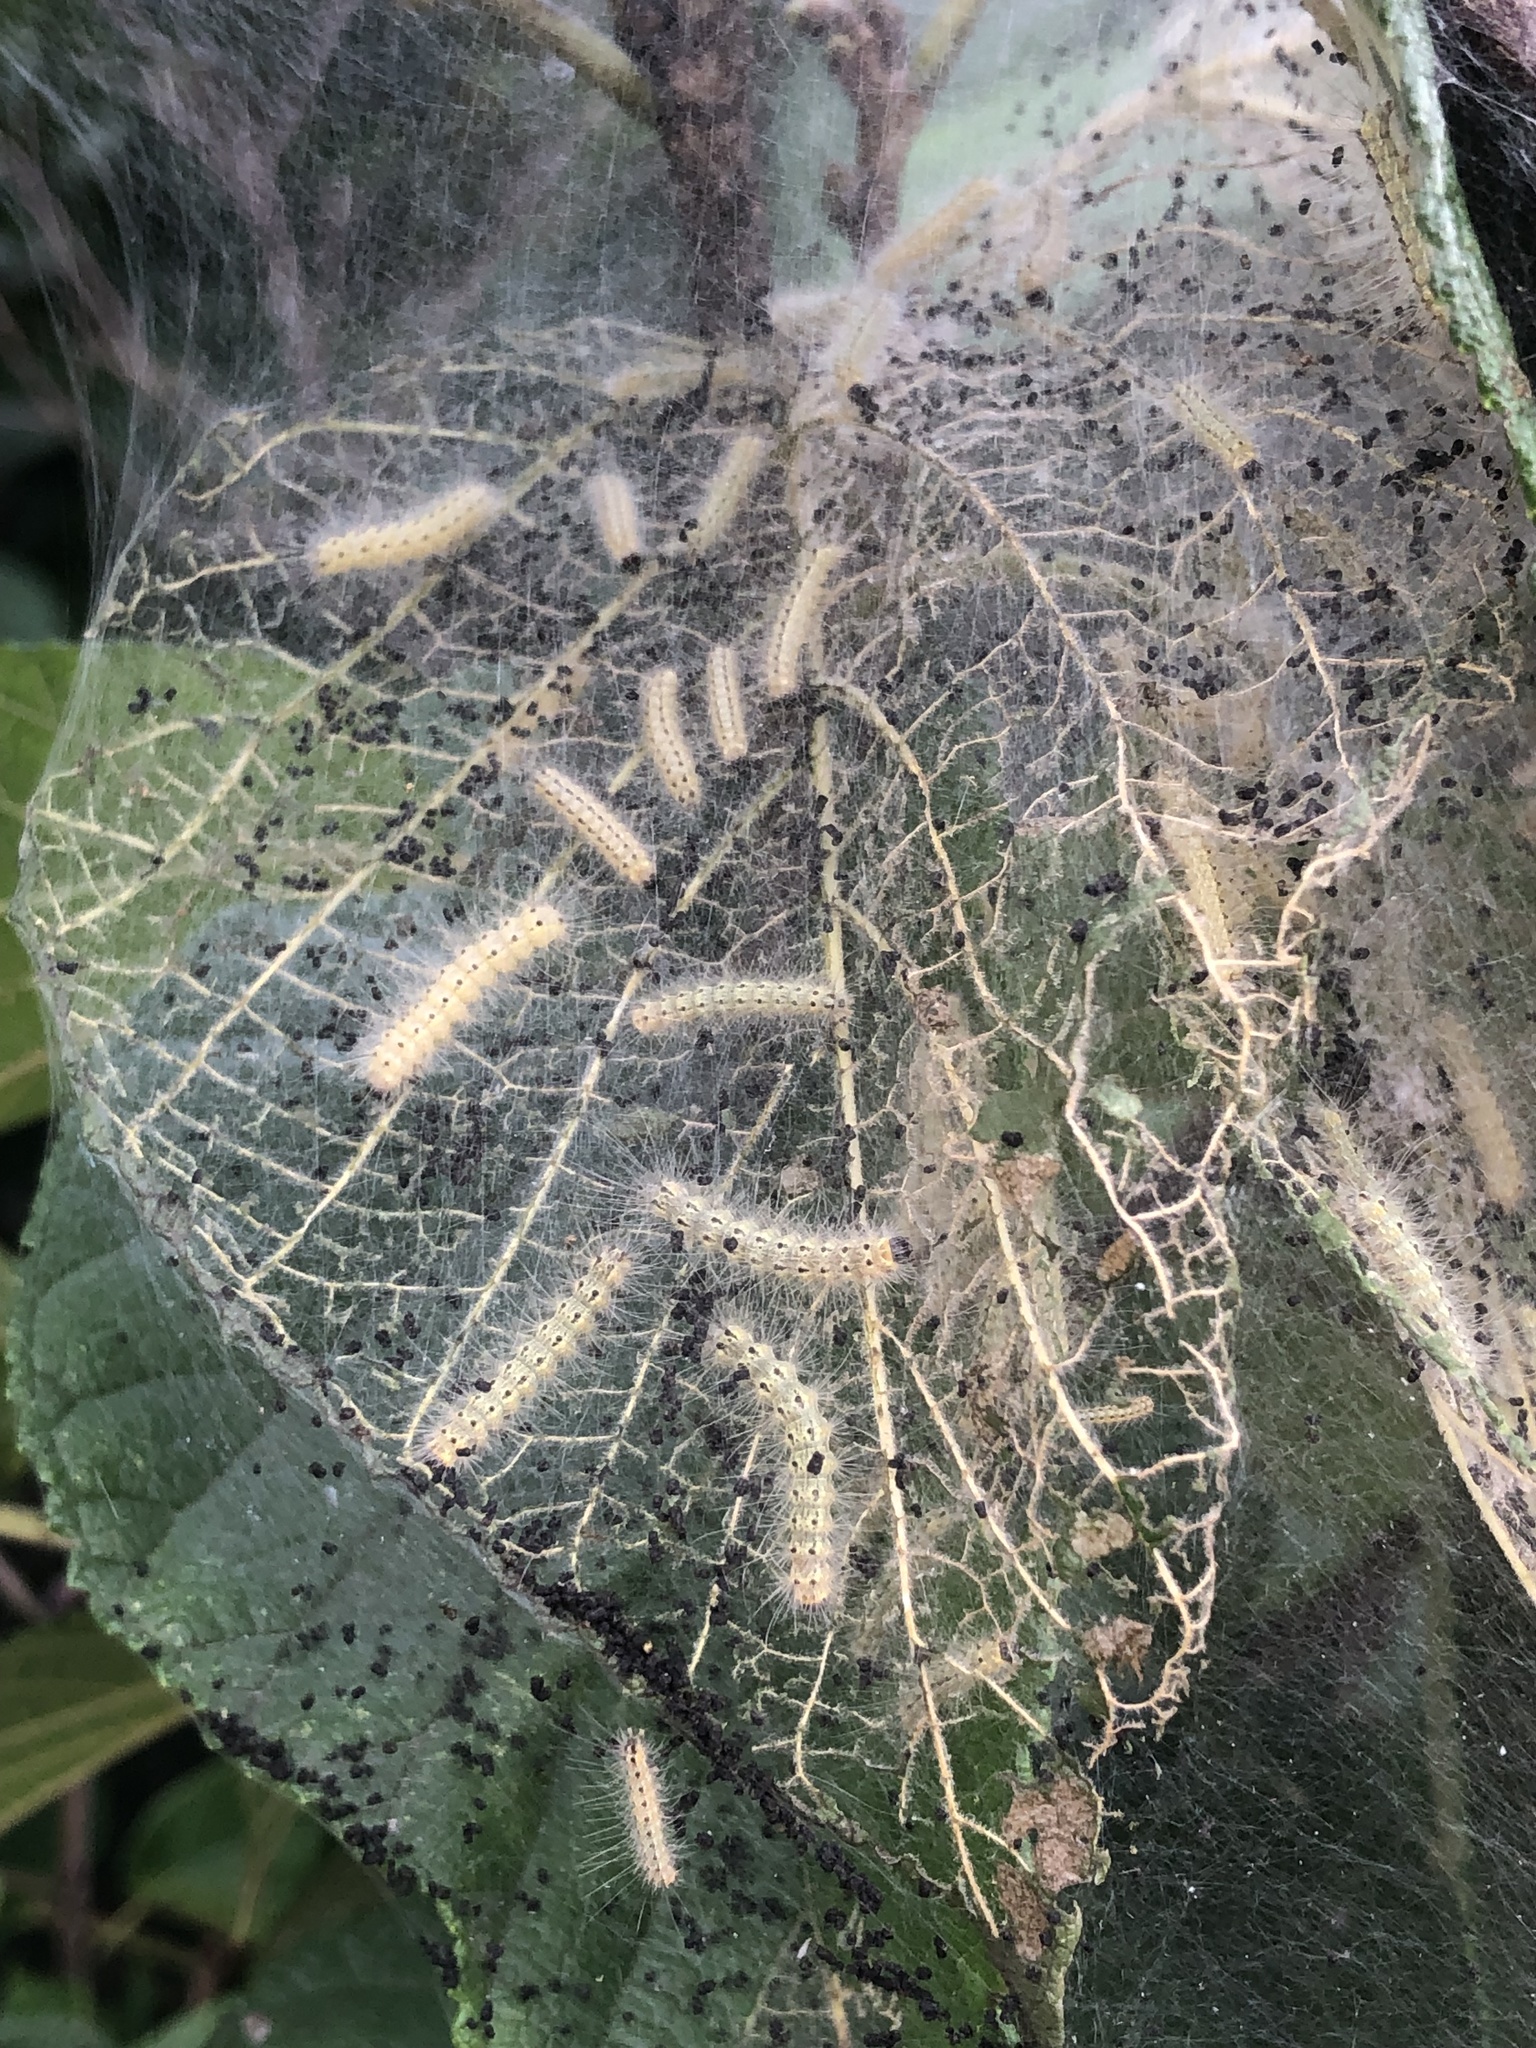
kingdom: Animalia
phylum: Arthropoda
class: Insecta
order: Lepidoptera
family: Erebidae
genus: Hyphantria
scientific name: Hyphantria cunea
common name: American white moth
